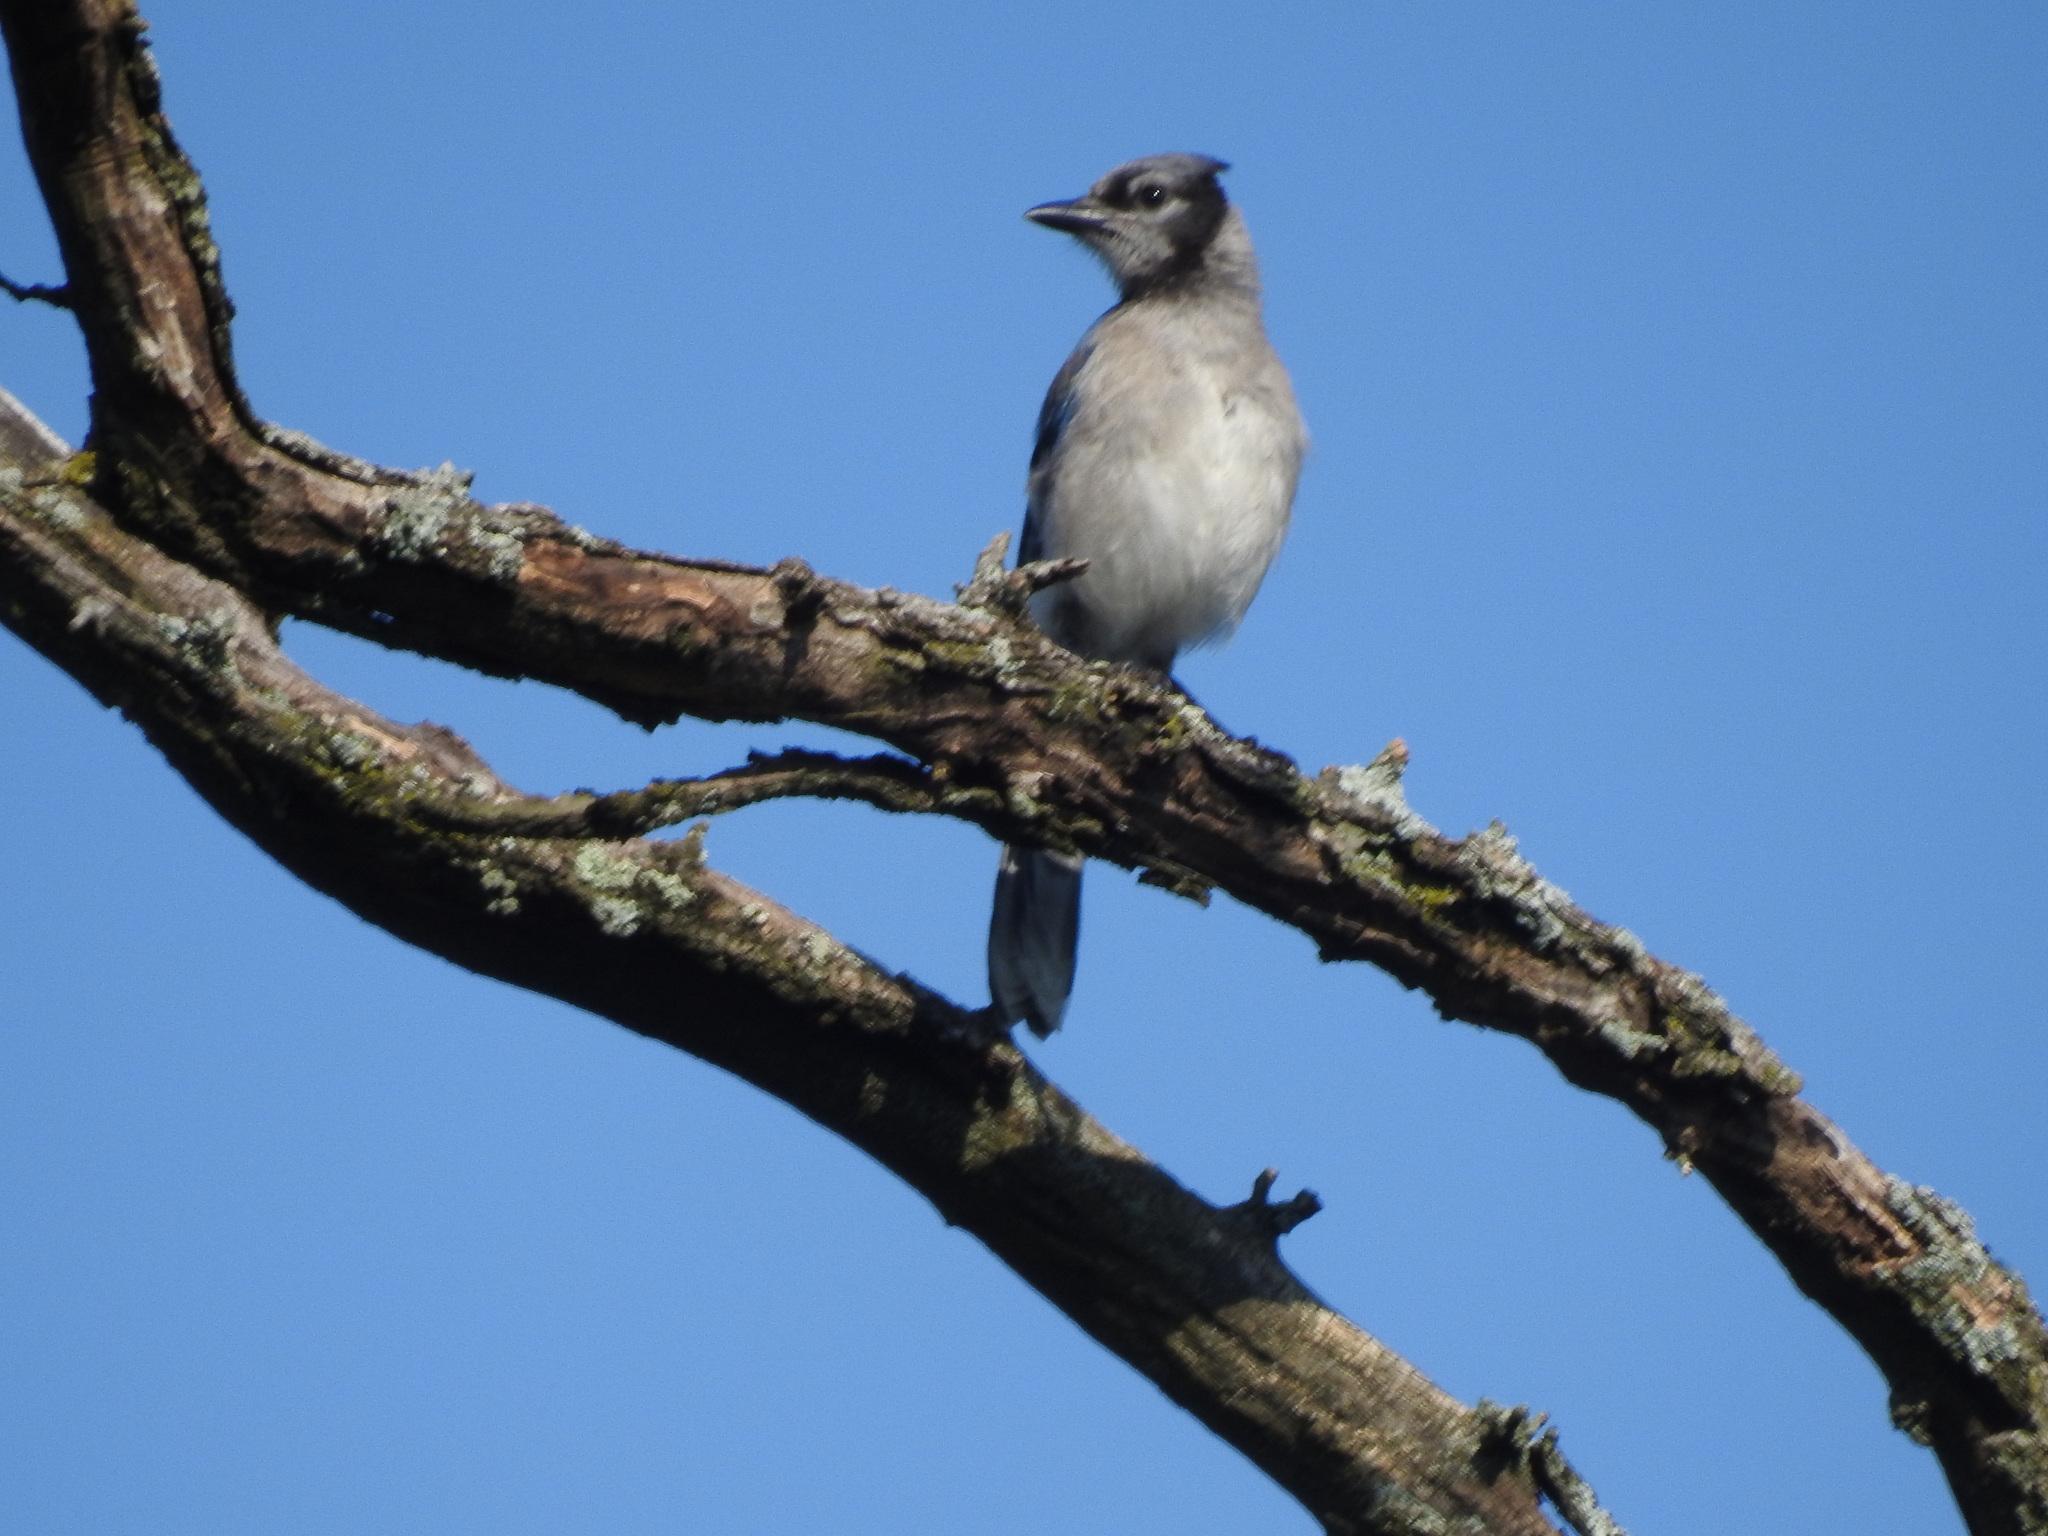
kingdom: Animalia
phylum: Chordata
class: Aves
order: Passeriformes
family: Corvidae
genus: Cyanocitta
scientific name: Cyanocitta cristata
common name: Blue jay
